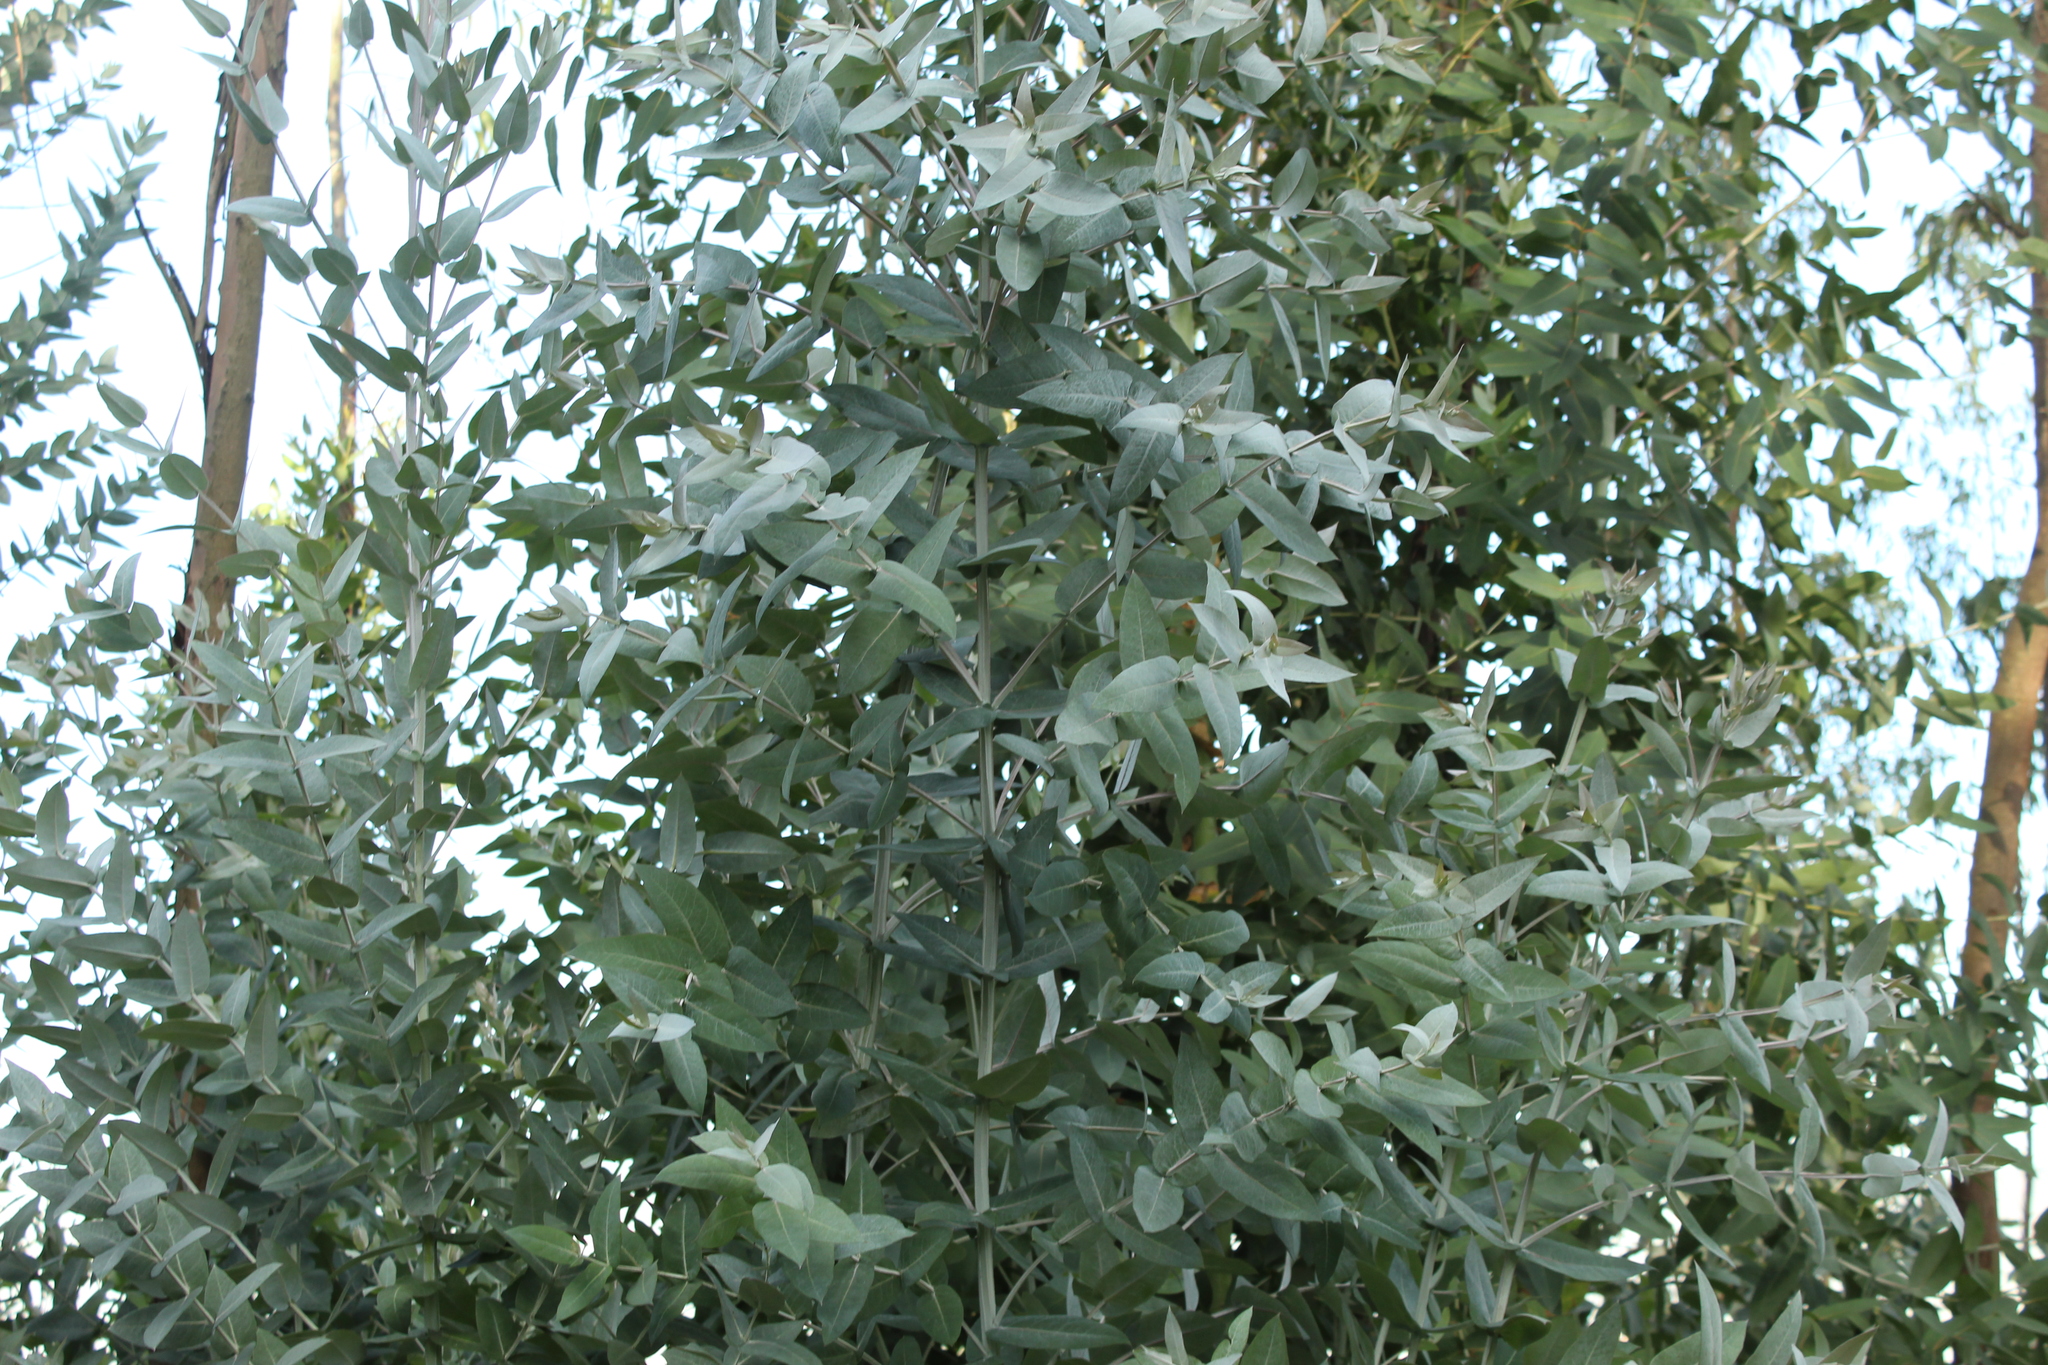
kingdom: Plantae
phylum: Tracheophyta
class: Magnoliopsida
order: Myrtales
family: Myrtaceae
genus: Eucalyptus
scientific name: Eucalyptus globulus
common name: Southern blue-gum
